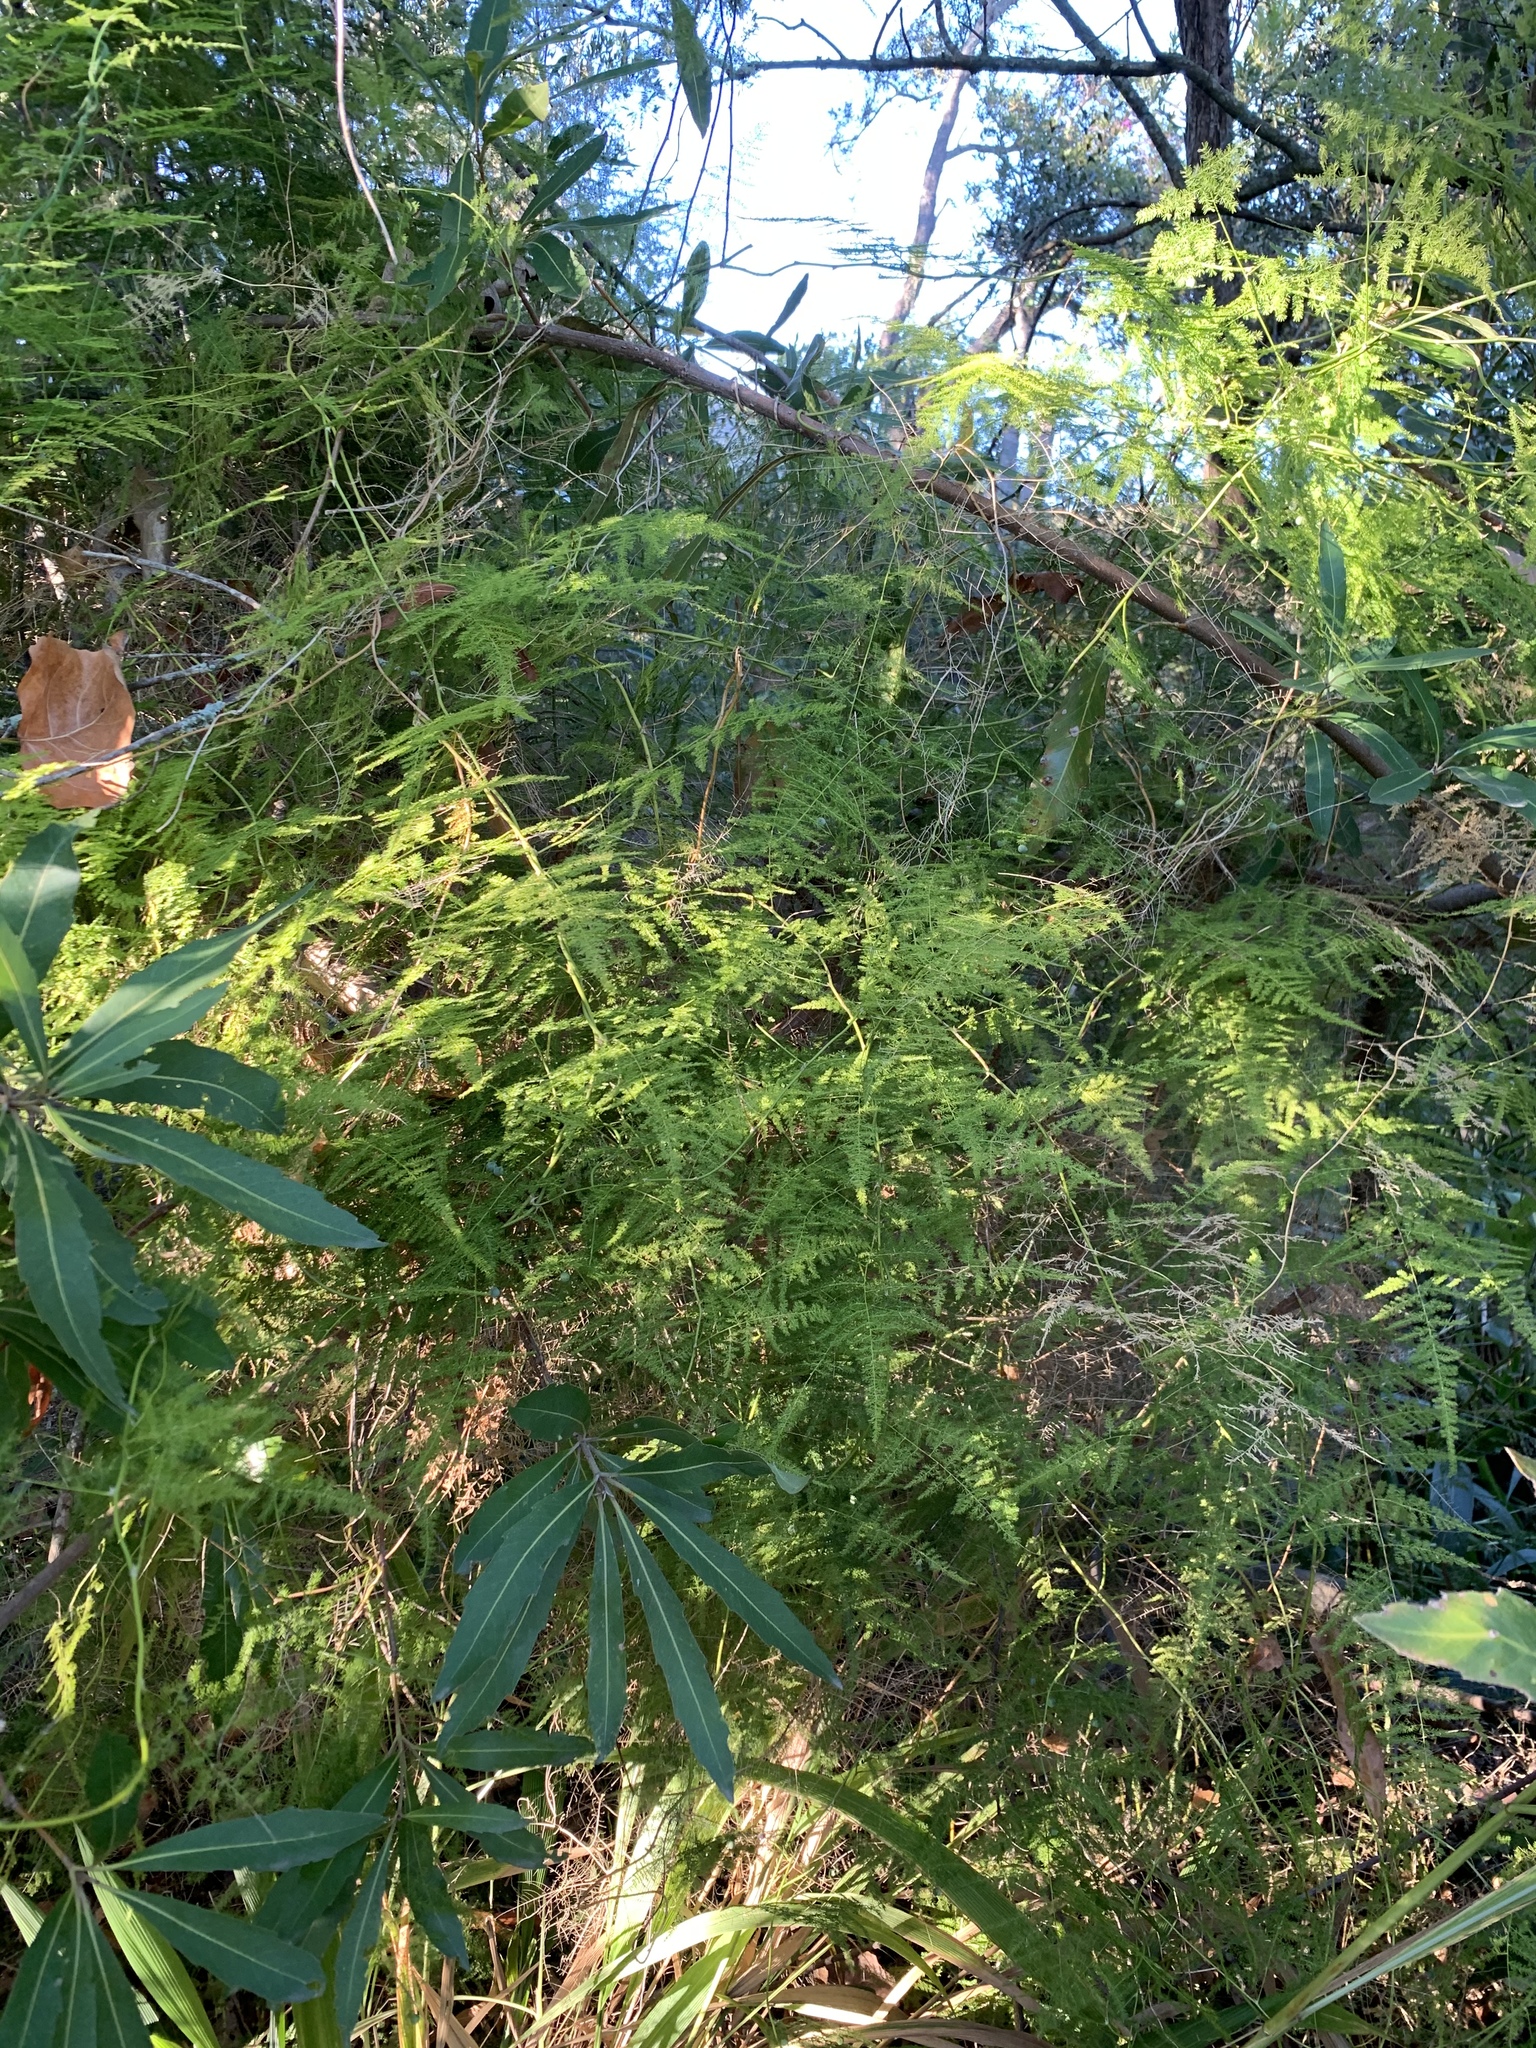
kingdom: Plantae
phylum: Tracheophyta
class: Liliopsida
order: Asparagales
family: Asparagaceae
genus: Asparagus
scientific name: Asparagus setaceus
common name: Common asparagus fern
